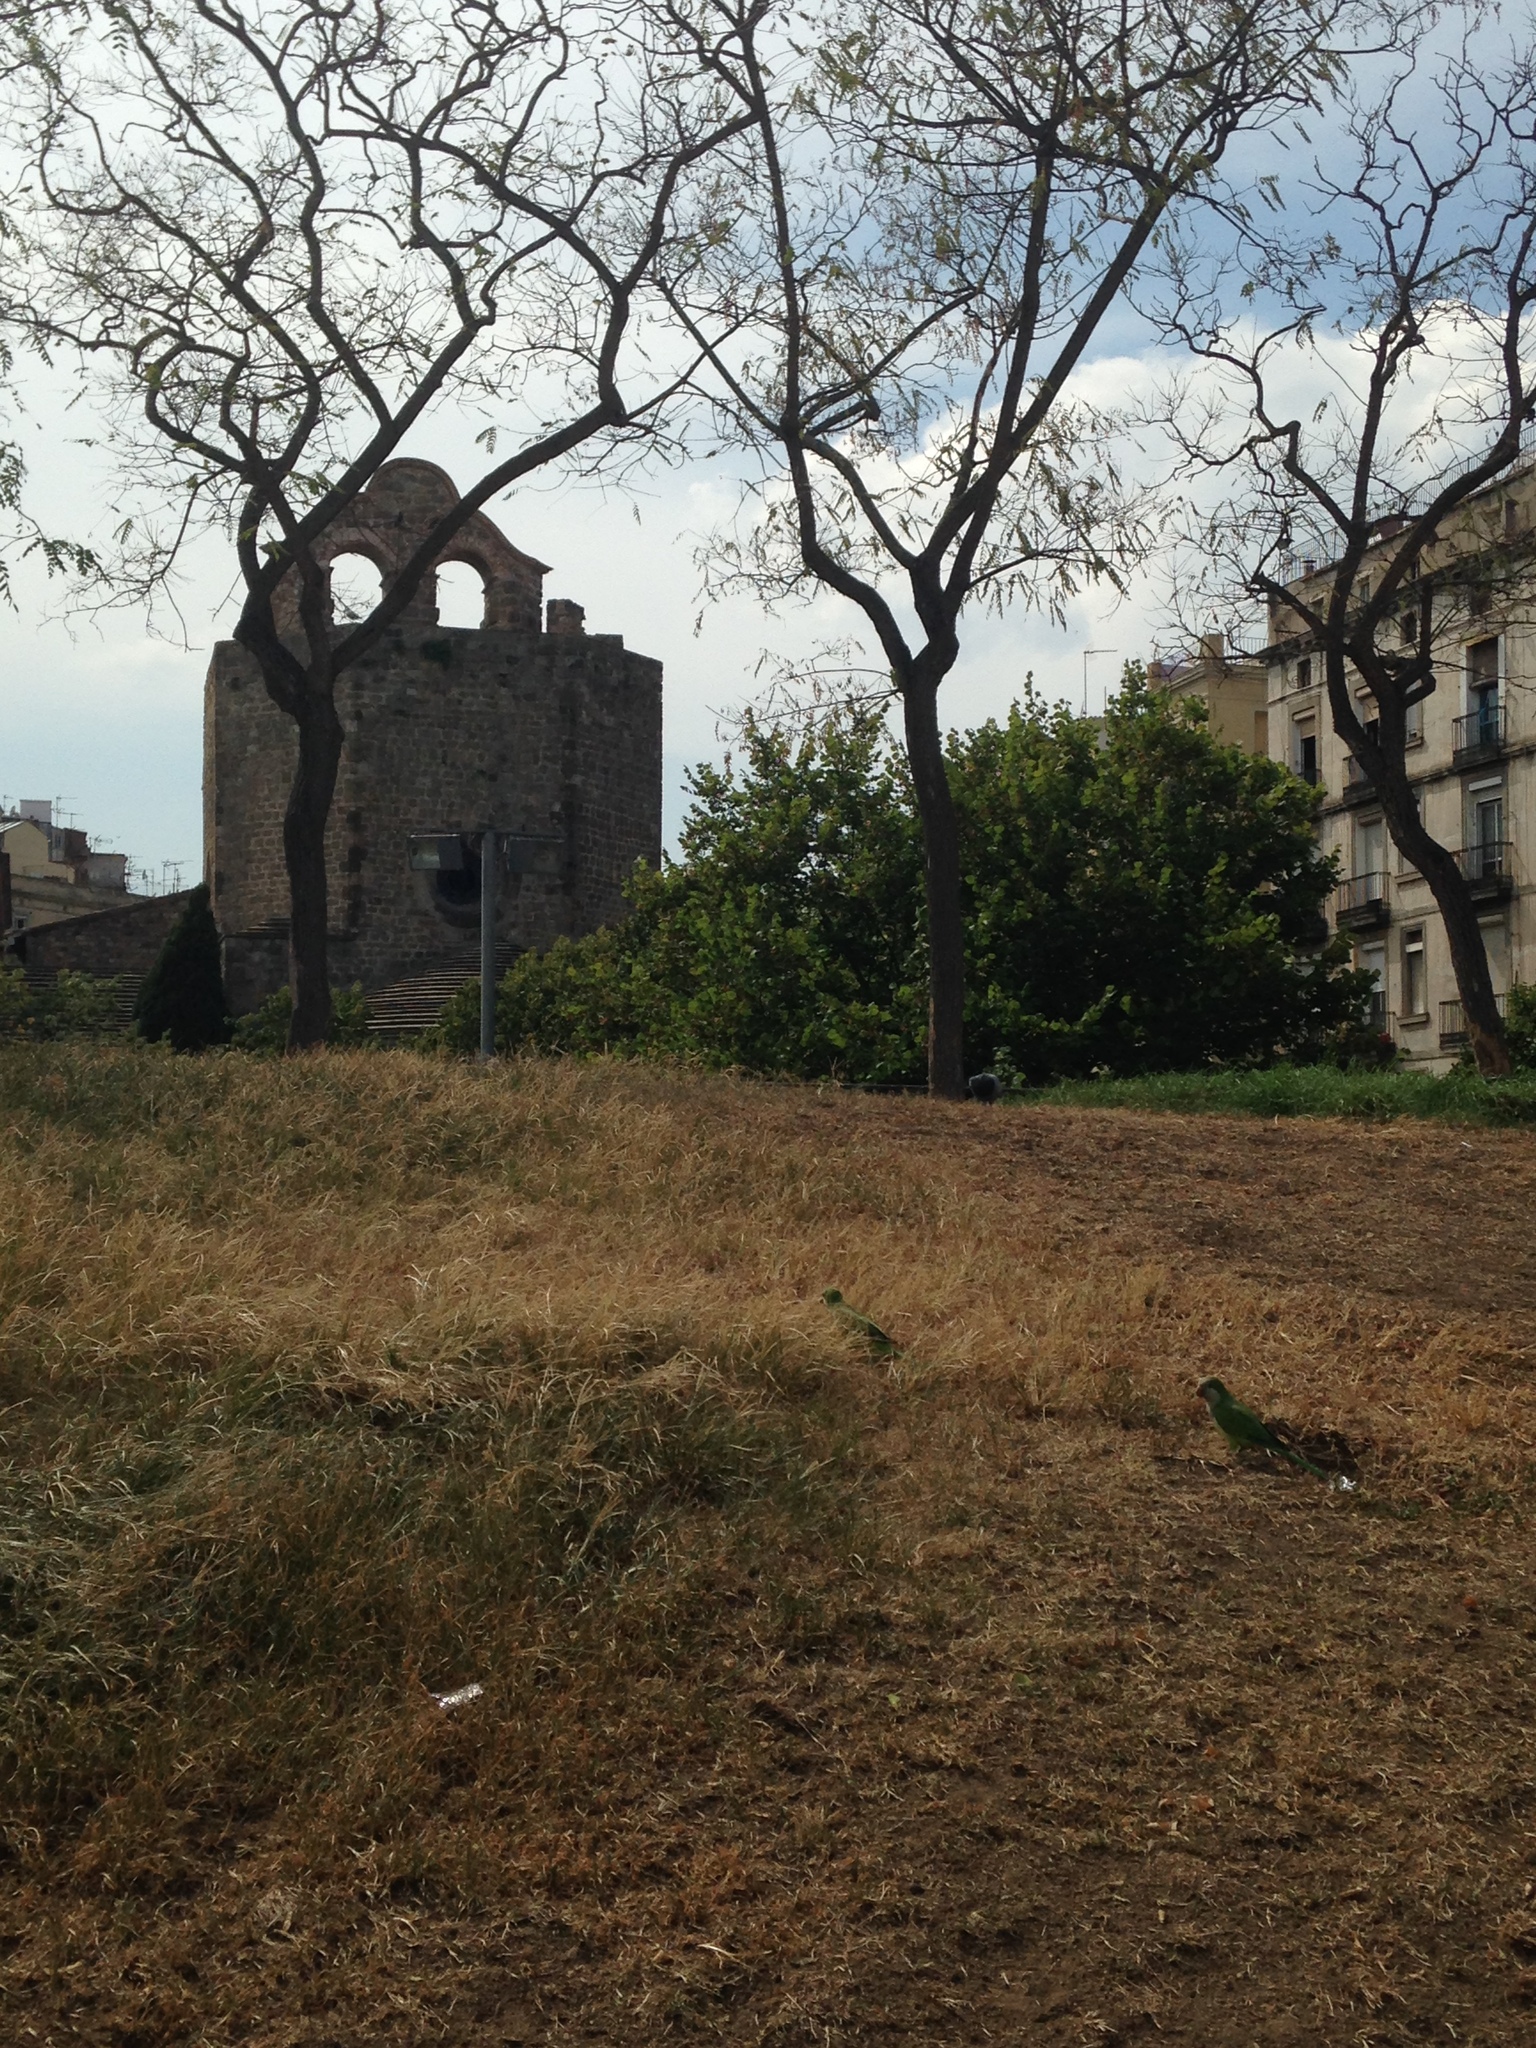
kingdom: Animalia
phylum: Chordata
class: Aves
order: Psittaciformes
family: Psittacidae
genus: Myiopsitta
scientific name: Myiopsitta monachus
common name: Monk parakeet
